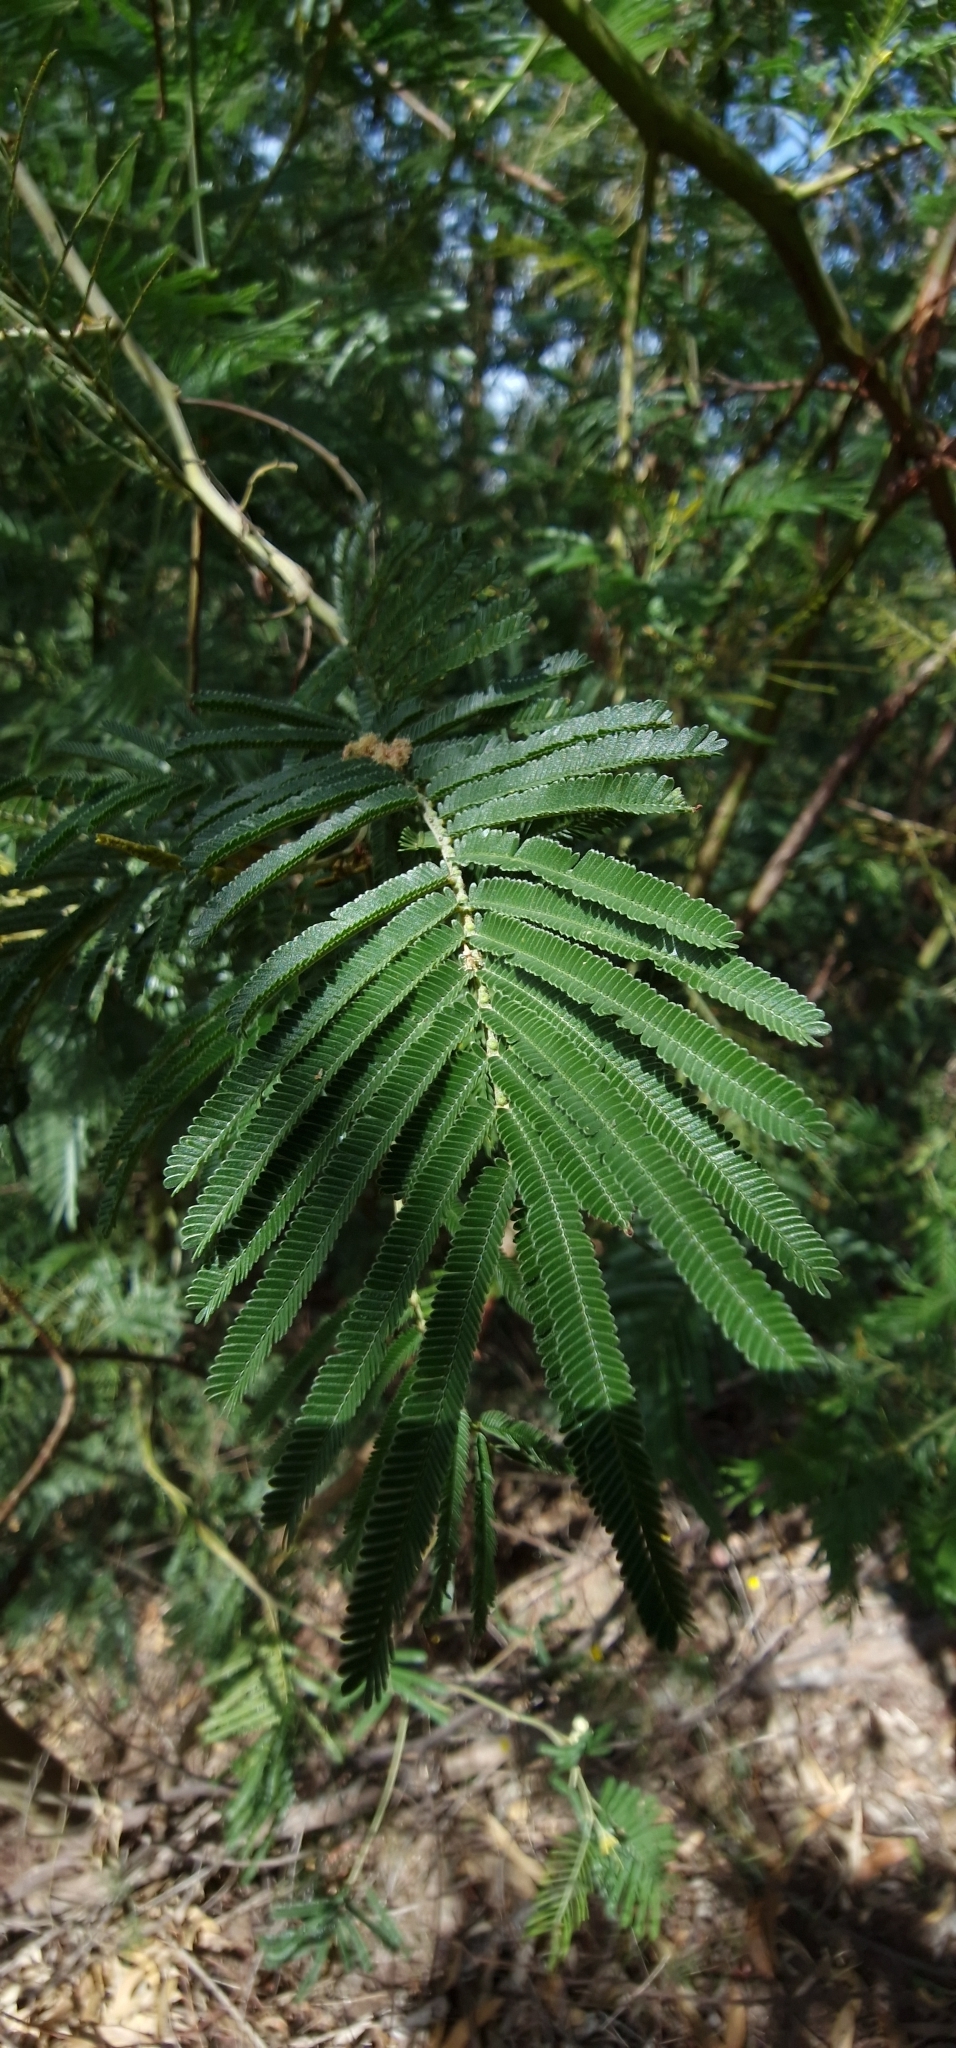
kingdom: Plantae
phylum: Tracheophyta
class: Magnoliopsida
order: Fabales
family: Fabaceae
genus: Acacia
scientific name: Acacia mearnsii
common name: Black wattle
